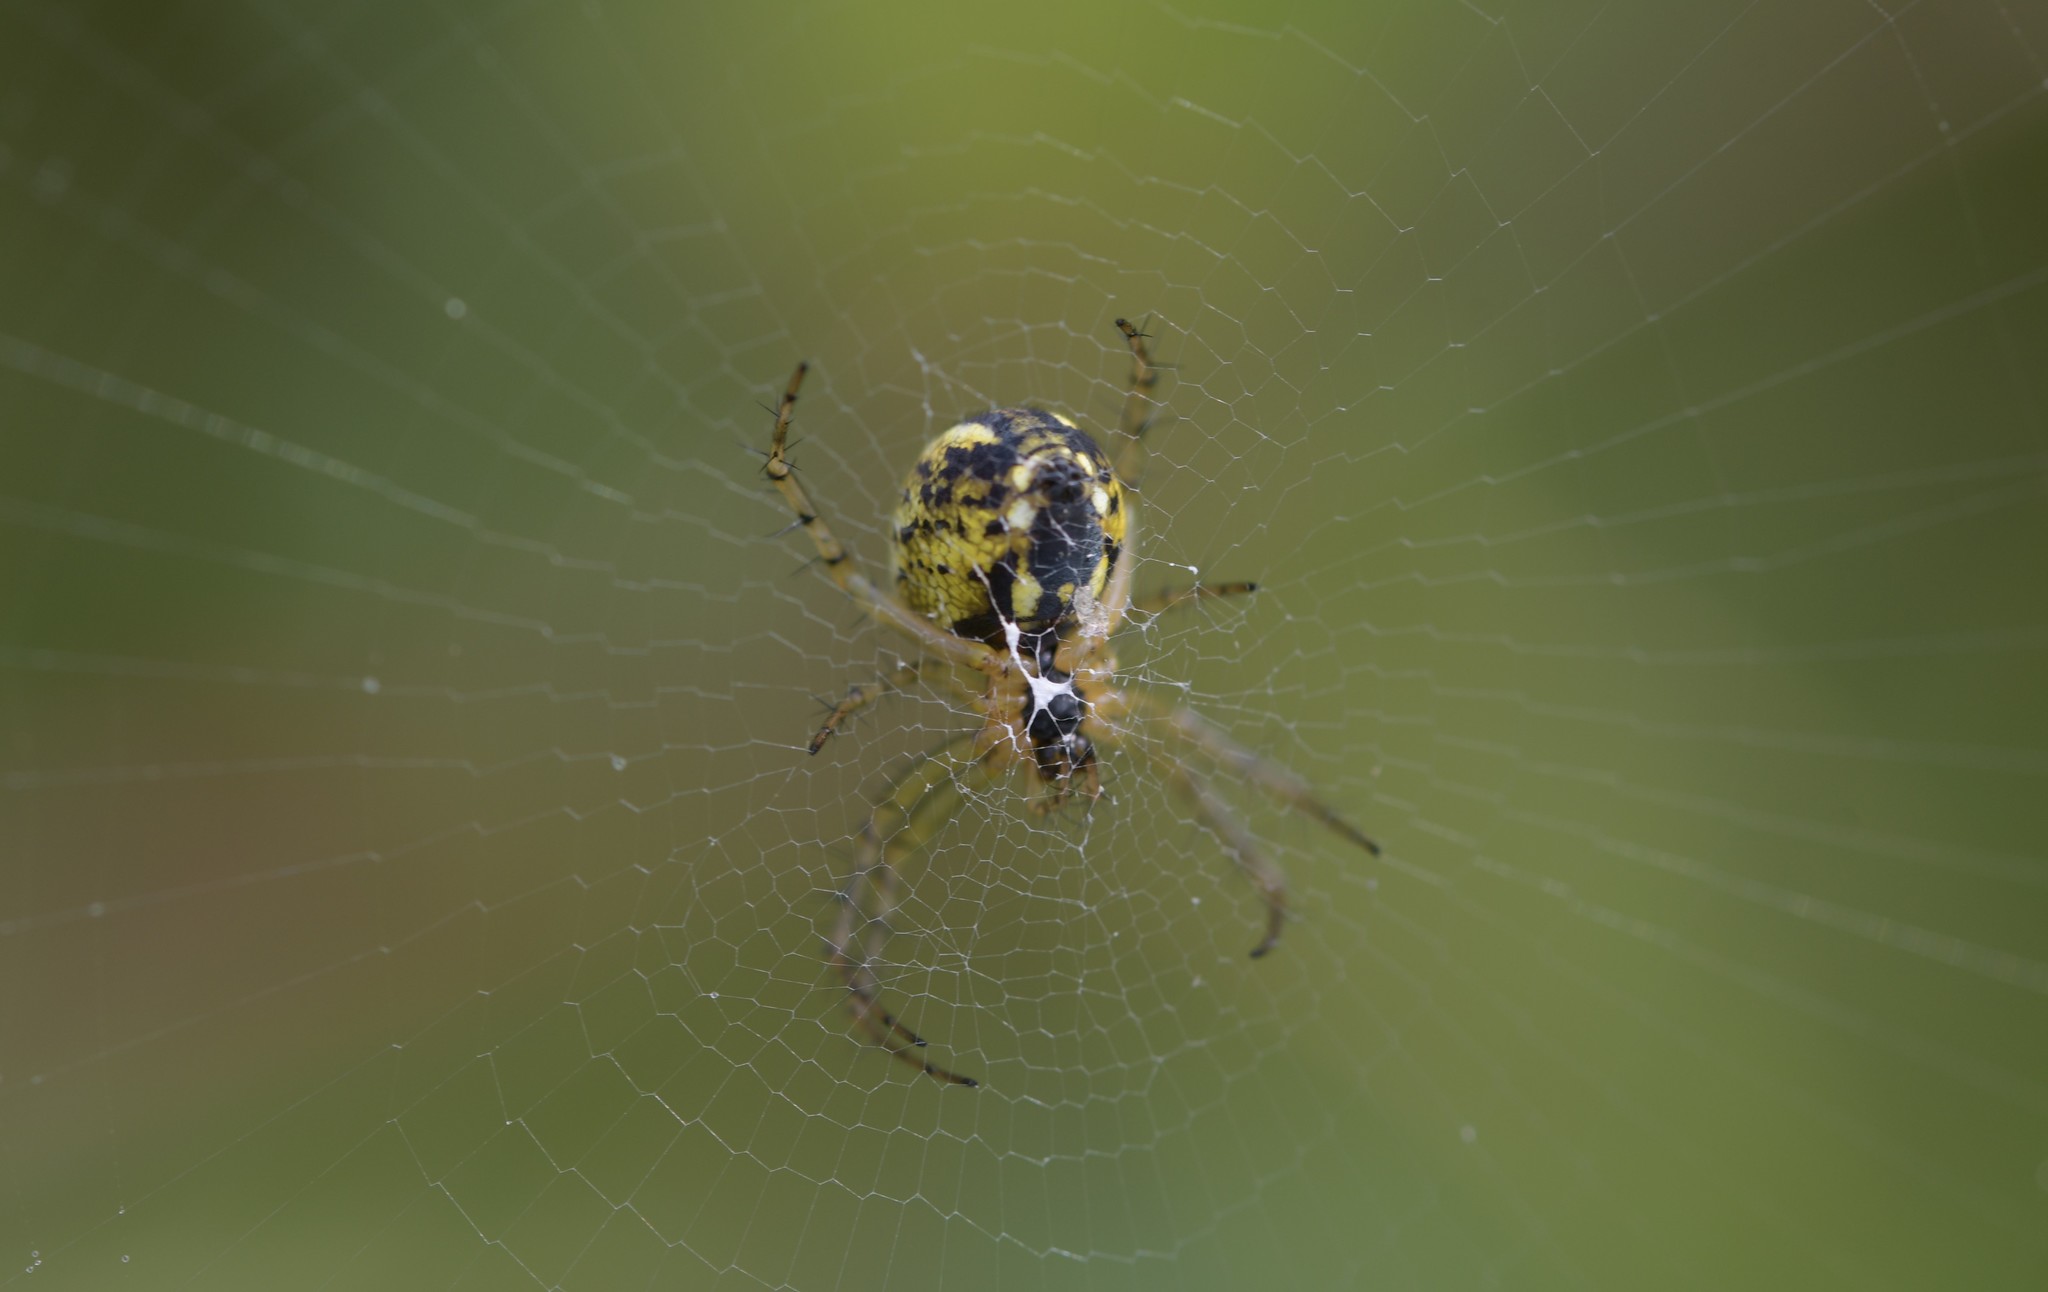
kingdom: Animalia
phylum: Arthropoda
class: Arachnida
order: Araneae
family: Araneidae
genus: Mangora
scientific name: Mangora acalypha
